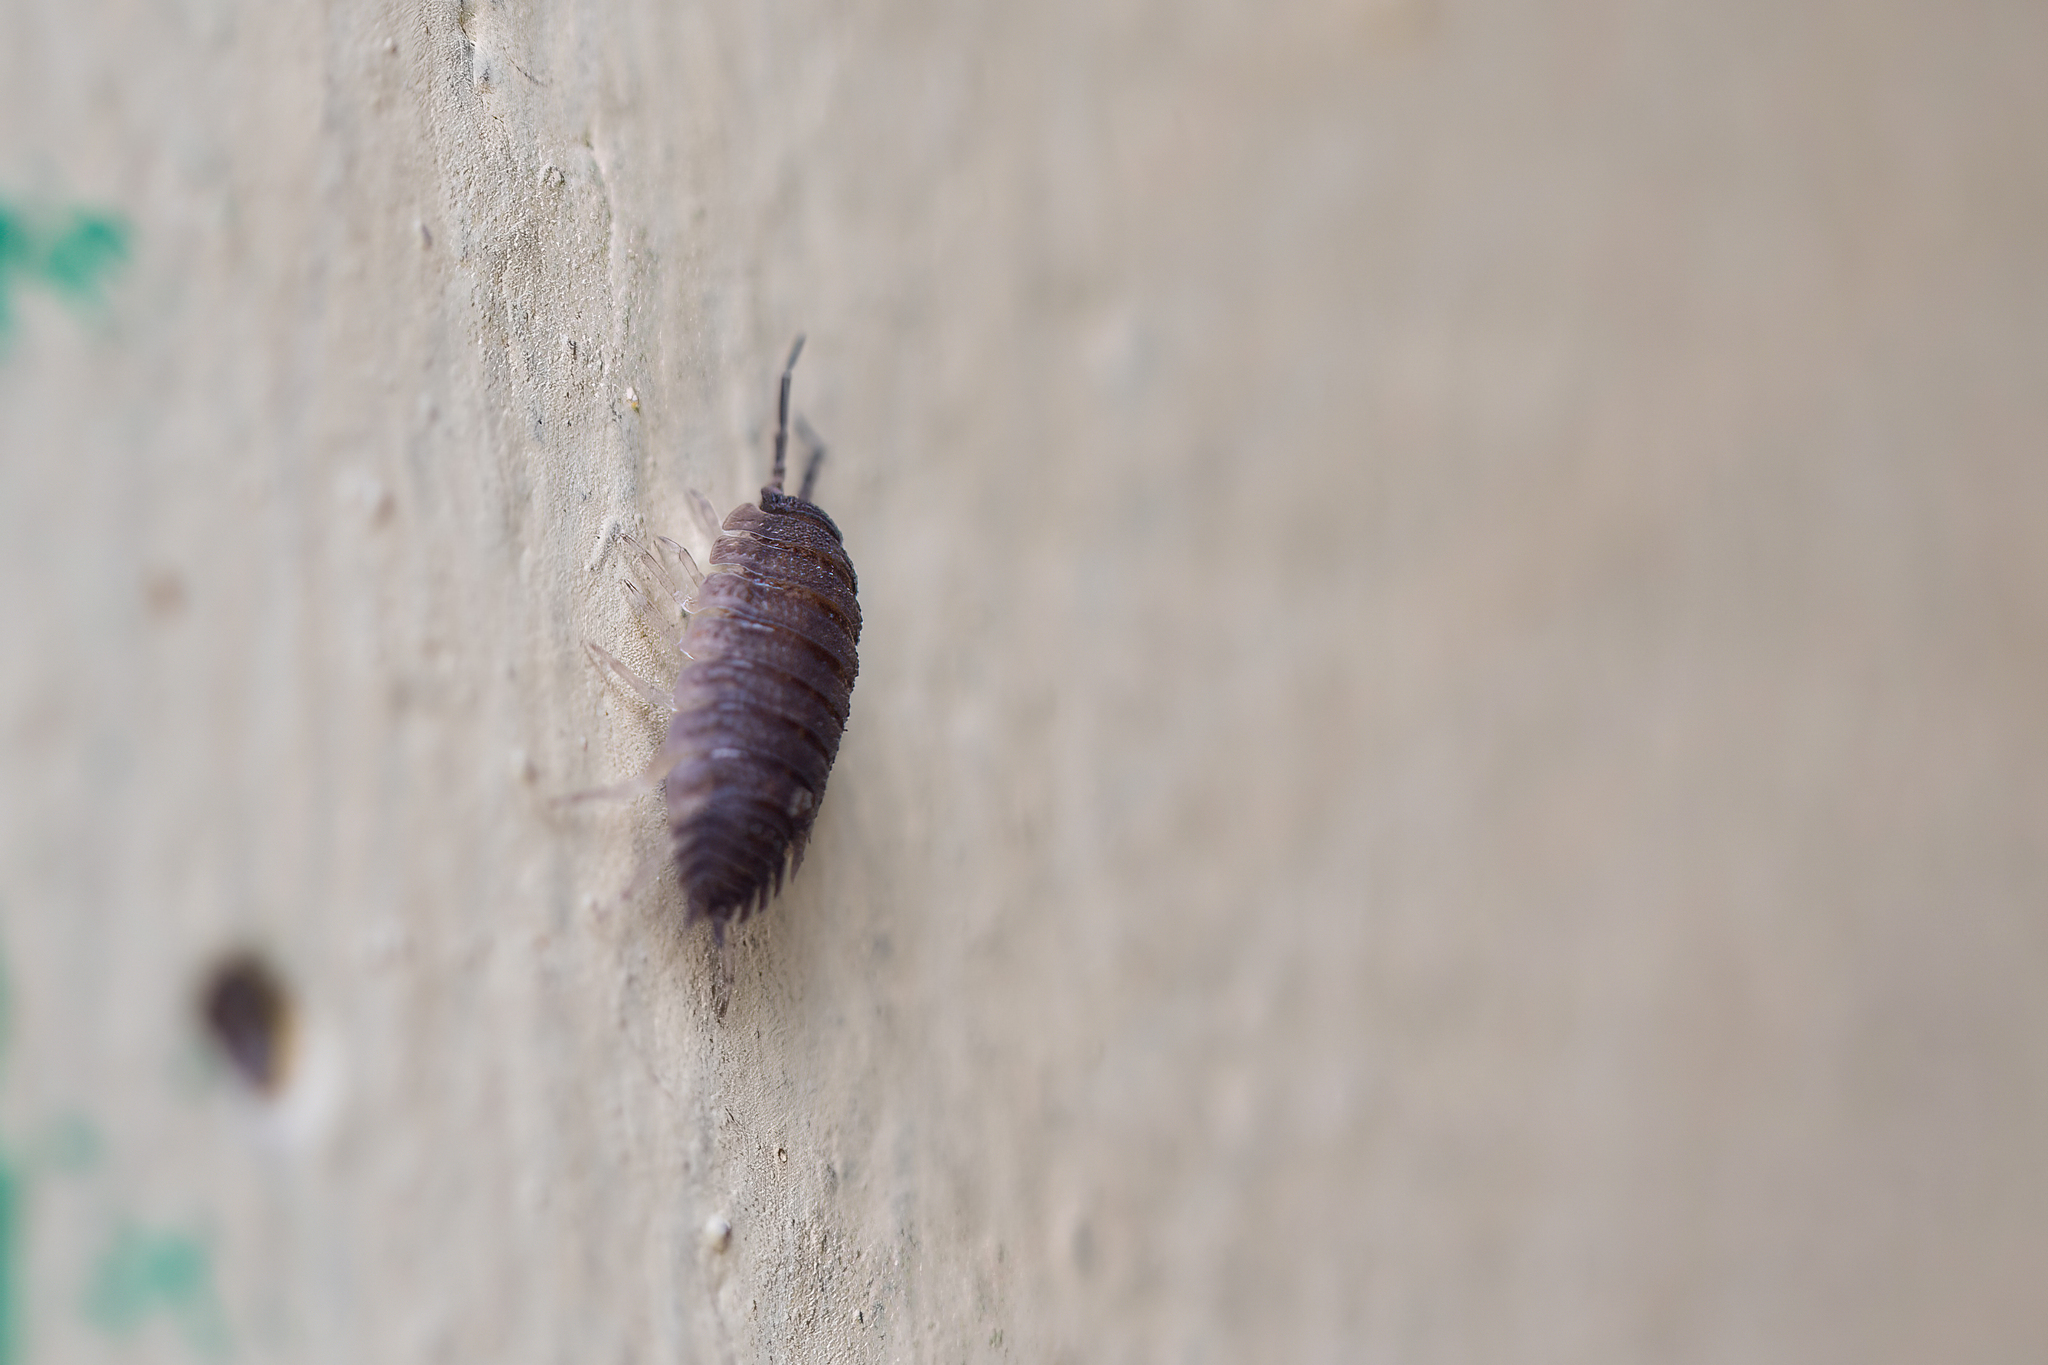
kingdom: Animalia
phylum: Arthropoda
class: Malacostraca
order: Isopoda
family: Porcellionidae
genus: Porcellio
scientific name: Porcellio scaber
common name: Common rough woodlouse
